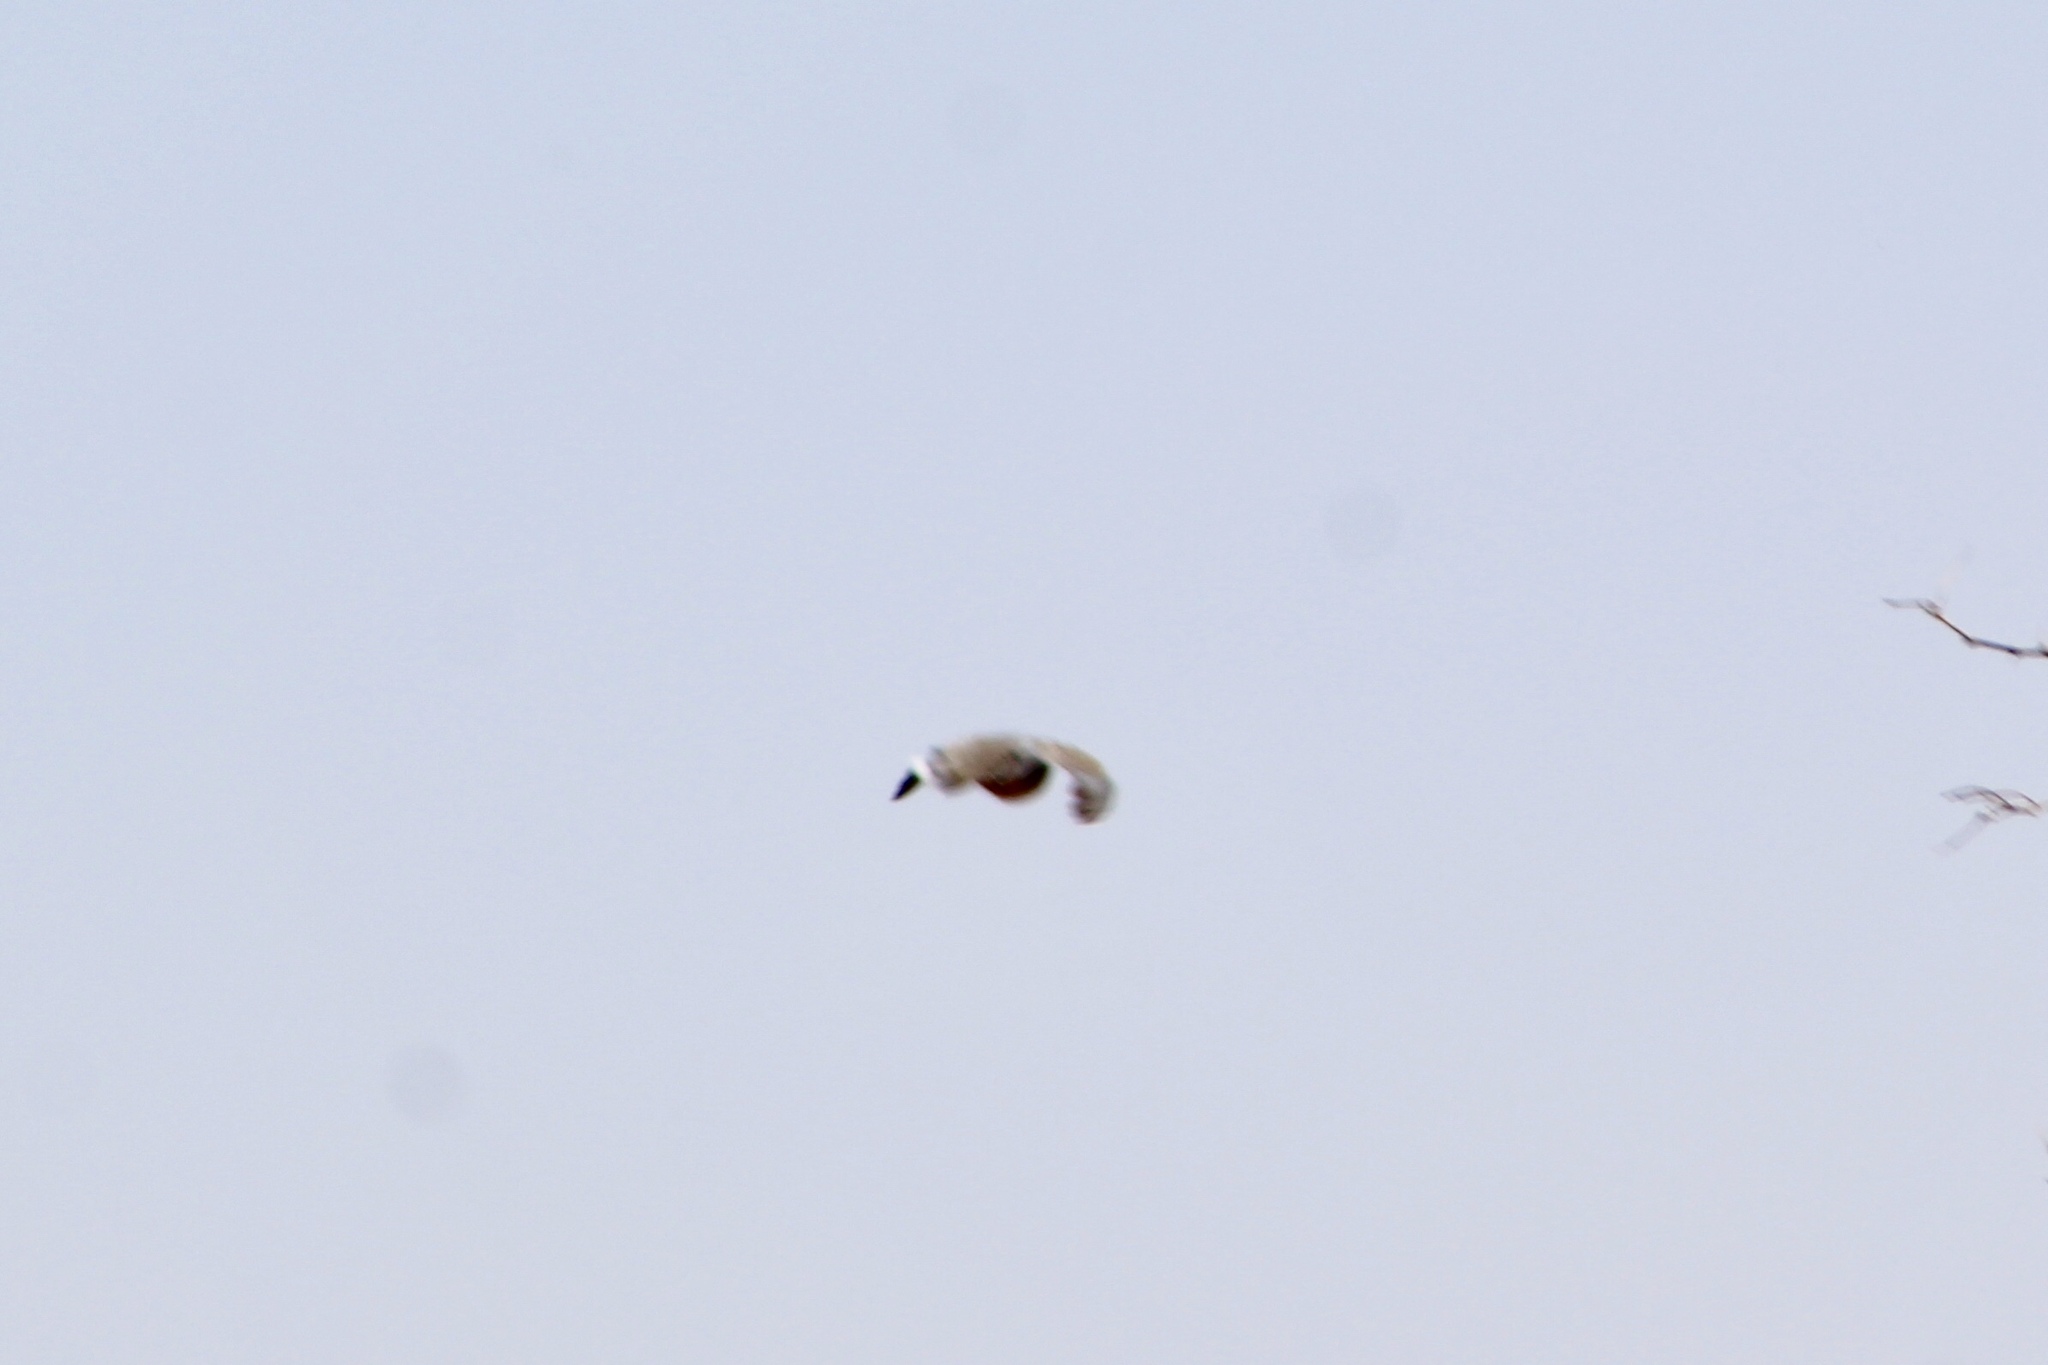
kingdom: Animalia
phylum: Chordata
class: Aves
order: Columbiformes
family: Columbidae
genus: Streptopelia
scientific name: Streptopelia decaocto
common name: Eurasian collared dove
